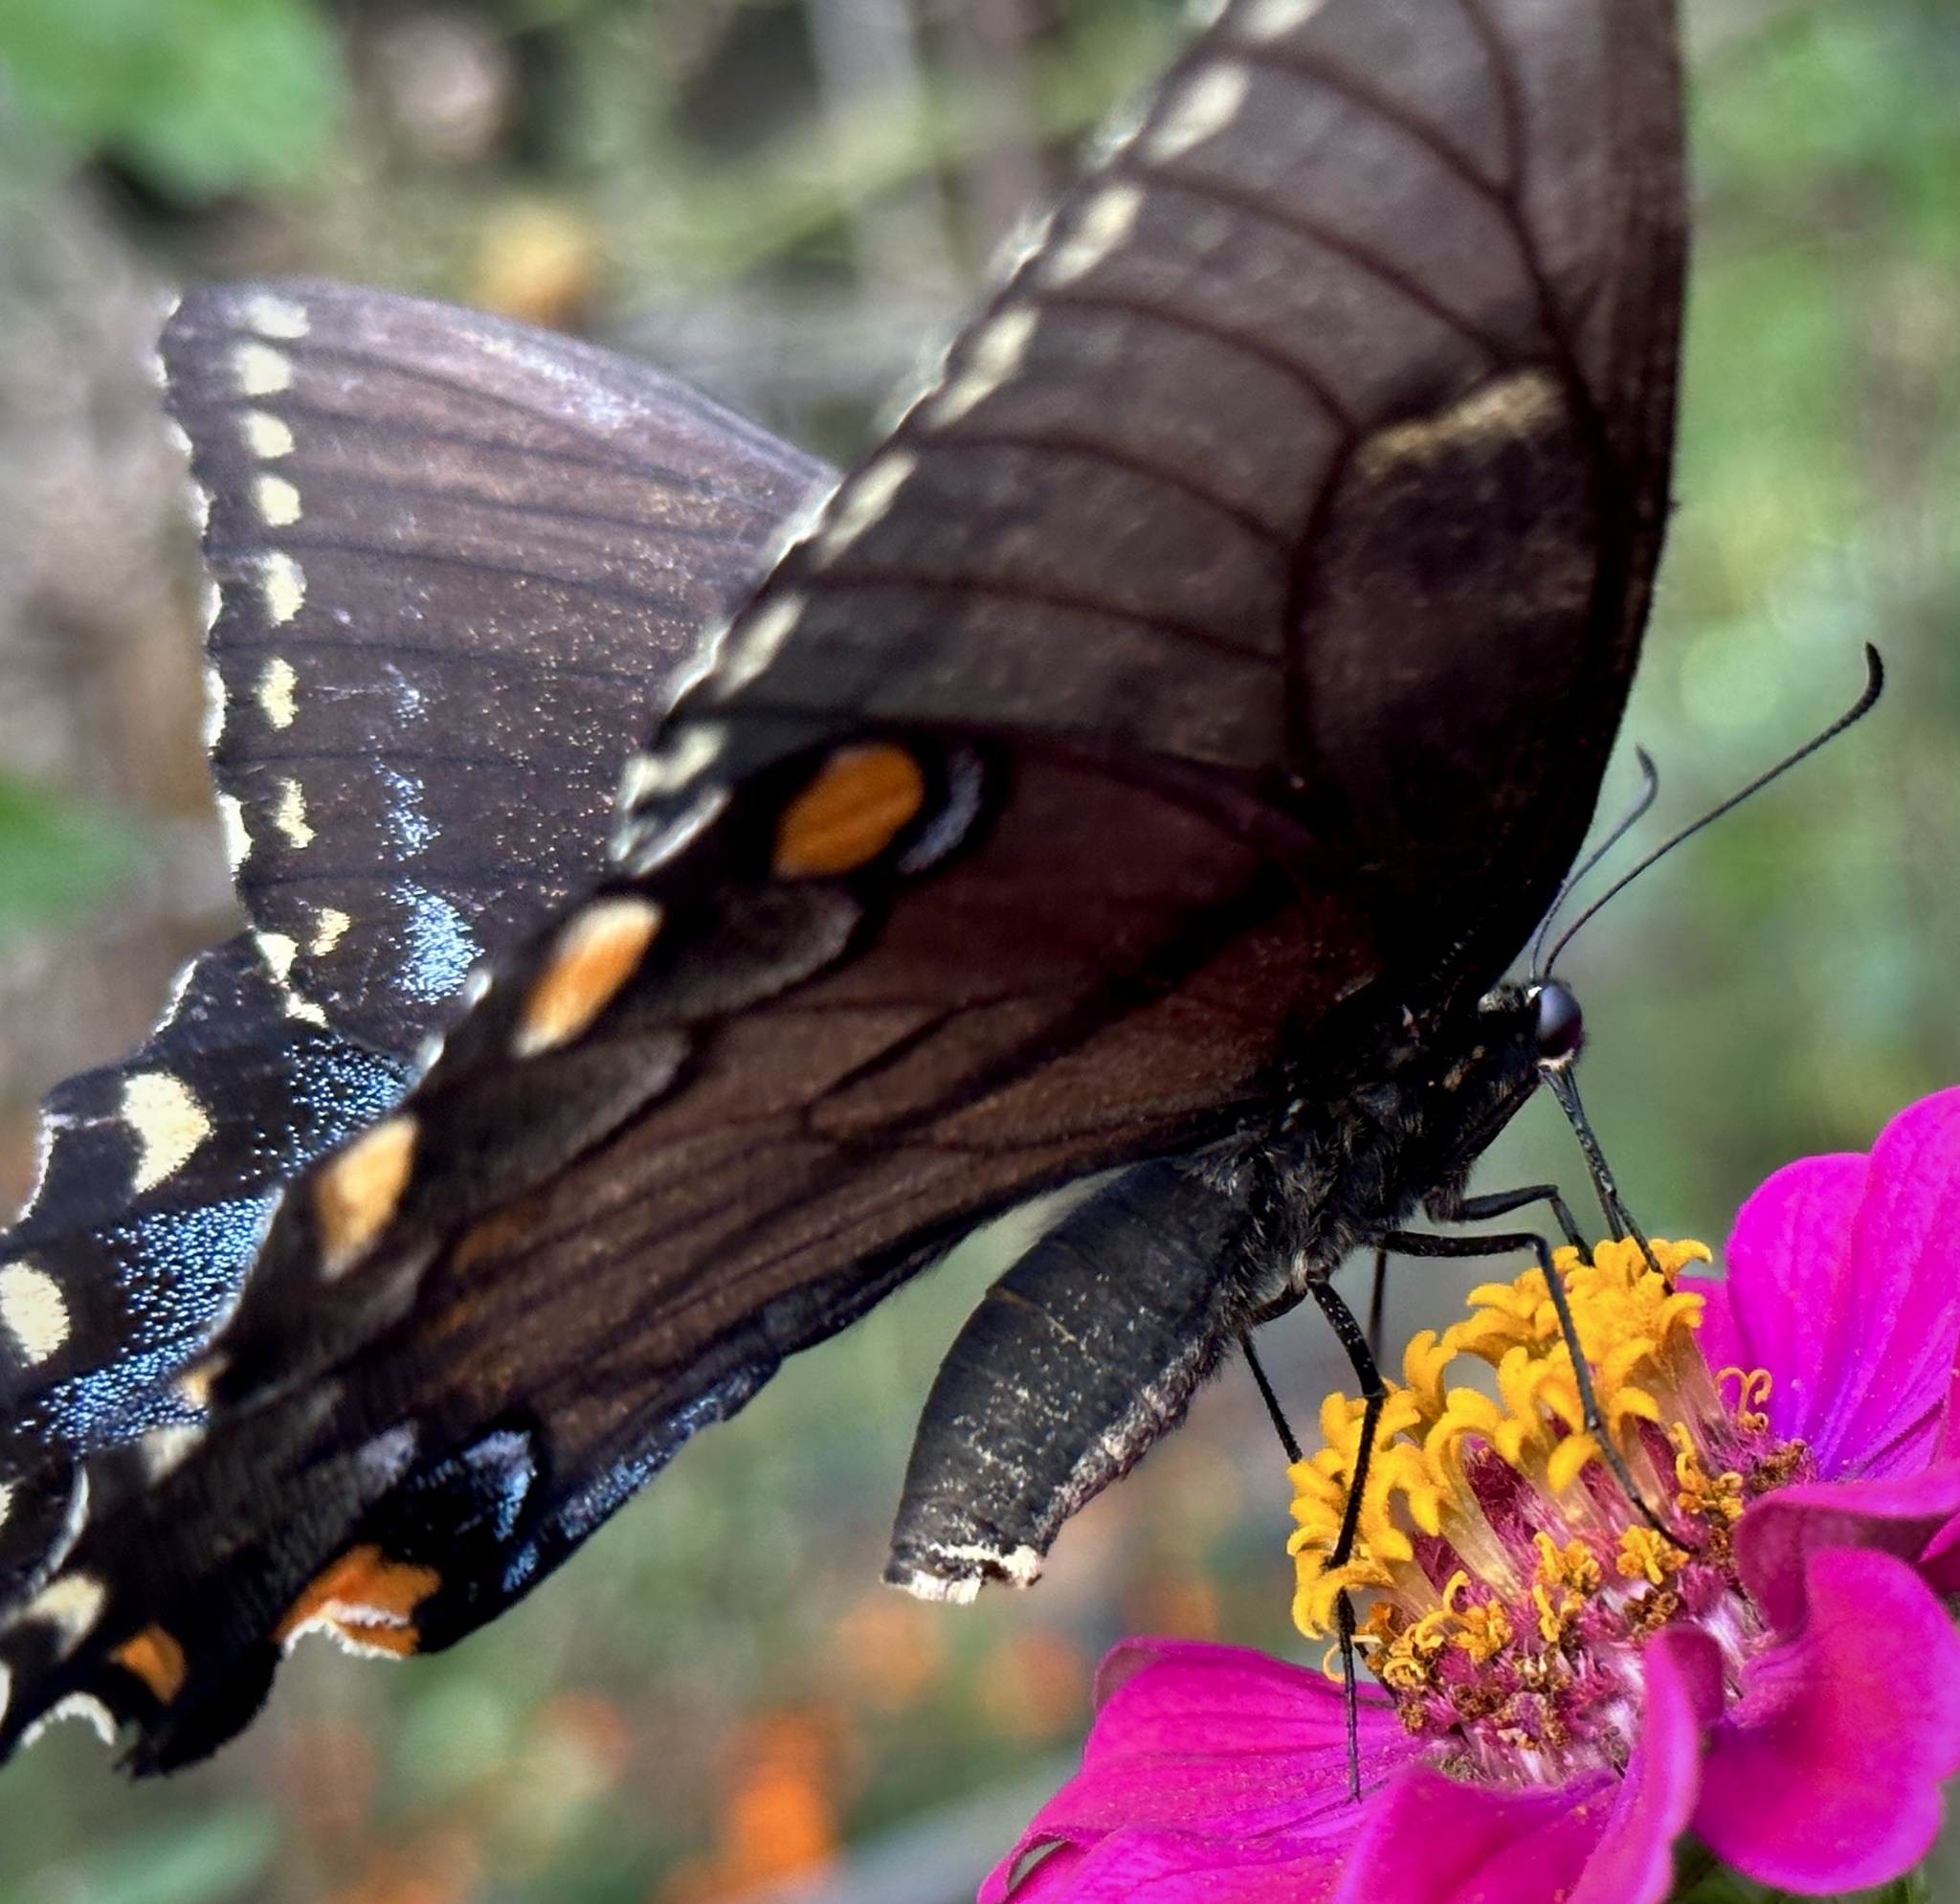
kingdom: Animalia
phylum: Arthropoda
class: Insecta
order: Lepidoptera
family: Papilionidae
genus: Papilio
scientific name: Papilio glaucus
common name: Tiger swallowtail
